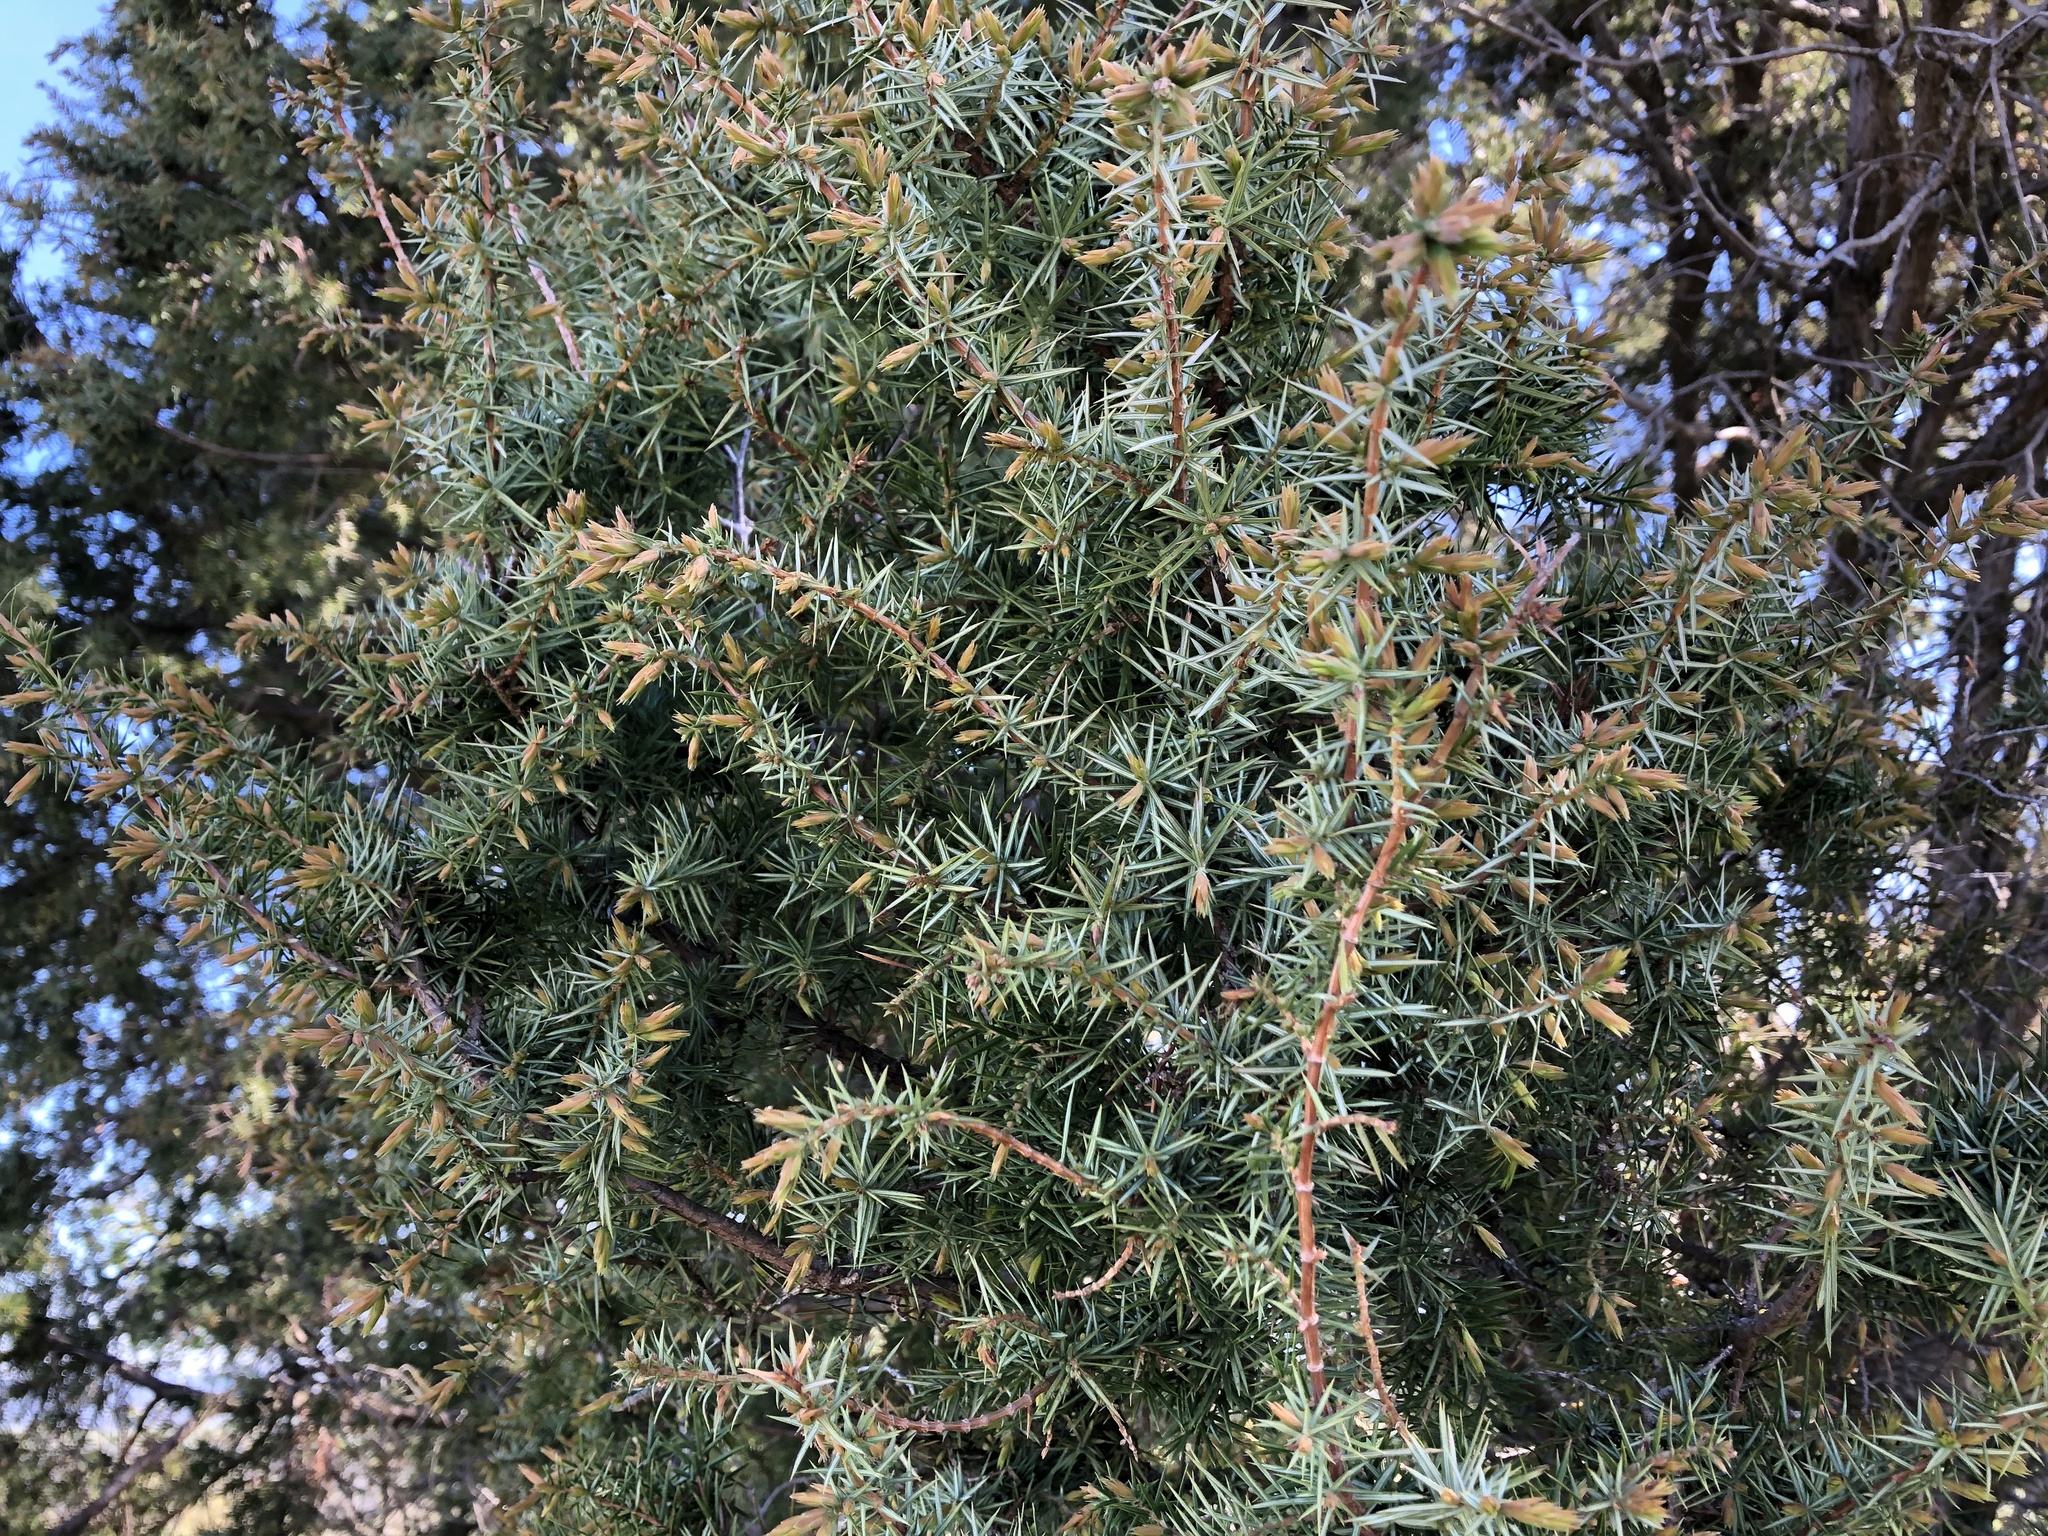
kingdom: Plantae
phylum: Tracheophyta
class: Pinopsida
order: Pinales
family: Cupressaceae
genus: Juniperus
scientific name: Juniperus communis
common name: Common juniper
